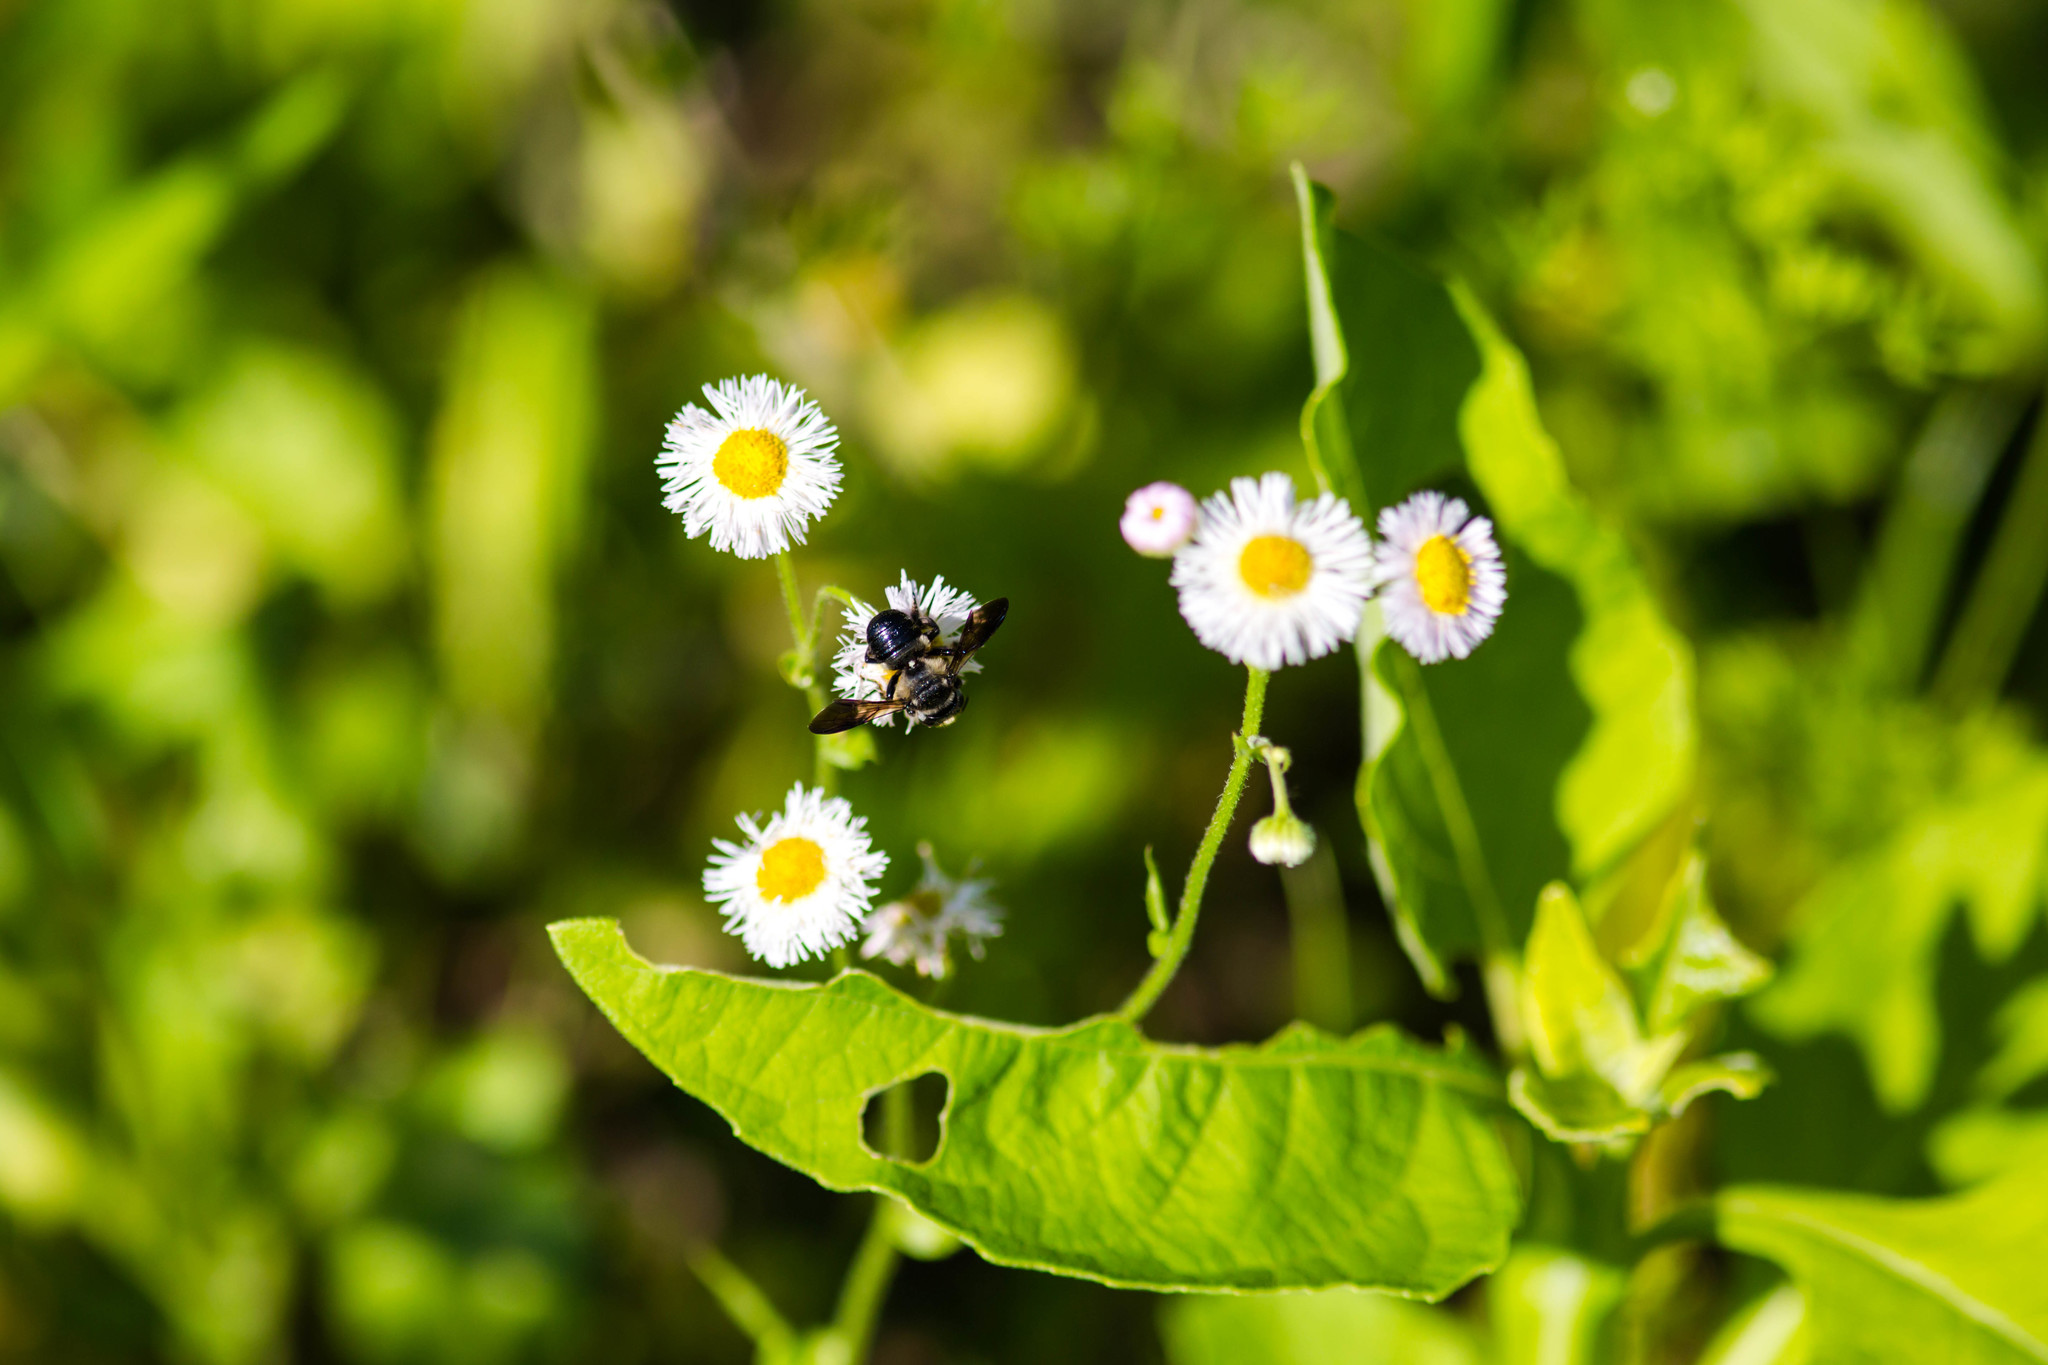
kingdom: Animalia
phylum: Arthropoda
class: Insecta
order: Hymenoptera
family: Megachilidae
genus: Megachile
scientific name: Megachile xylocopoides
